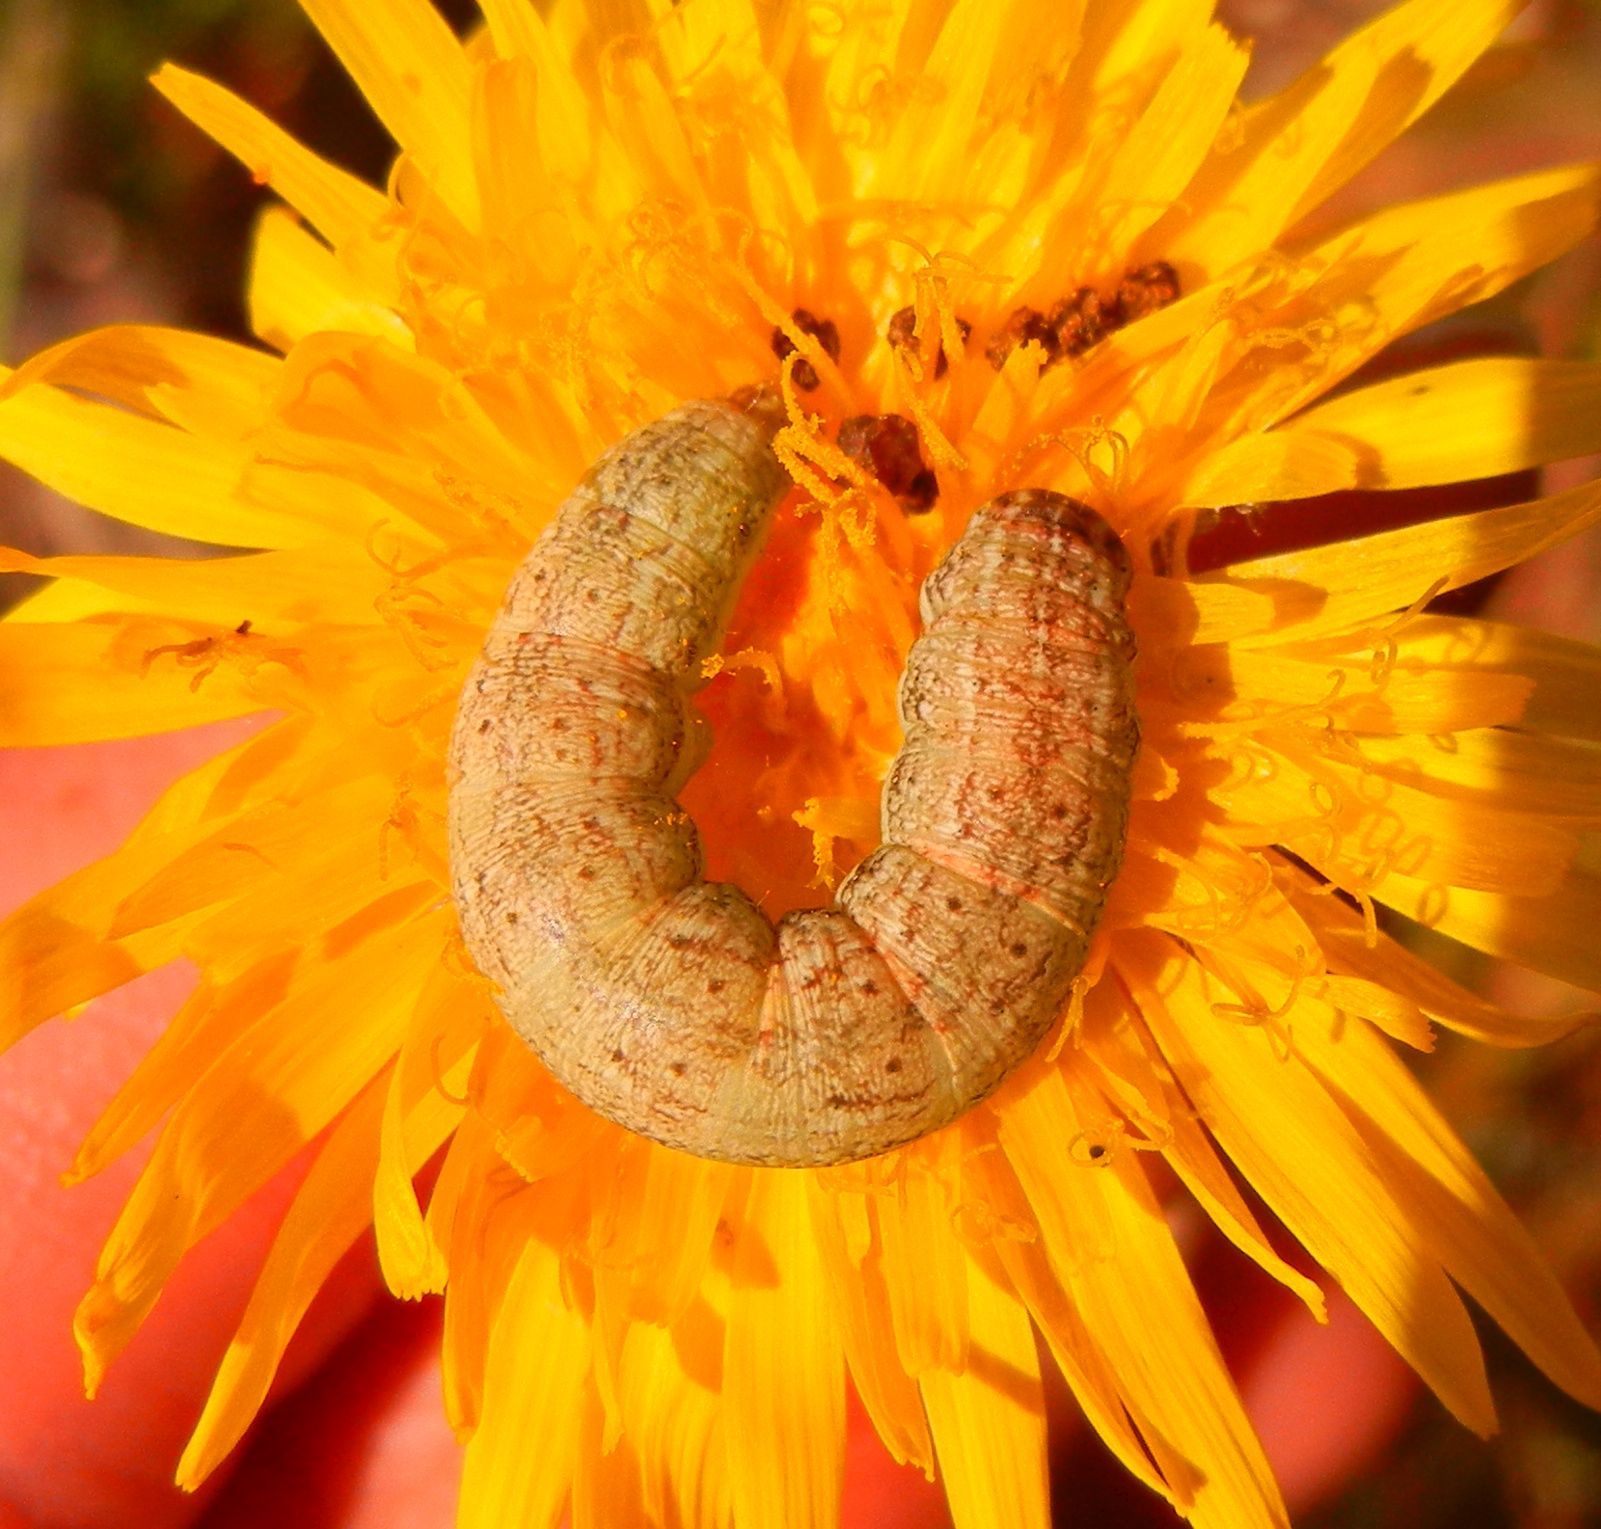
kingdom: Animalia
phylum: Arthropoda
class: Insecta
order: Lepidoptera
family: Noctuidae
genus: Hecatera
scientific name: Hecatera bicolorata
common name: Broad-barred white
